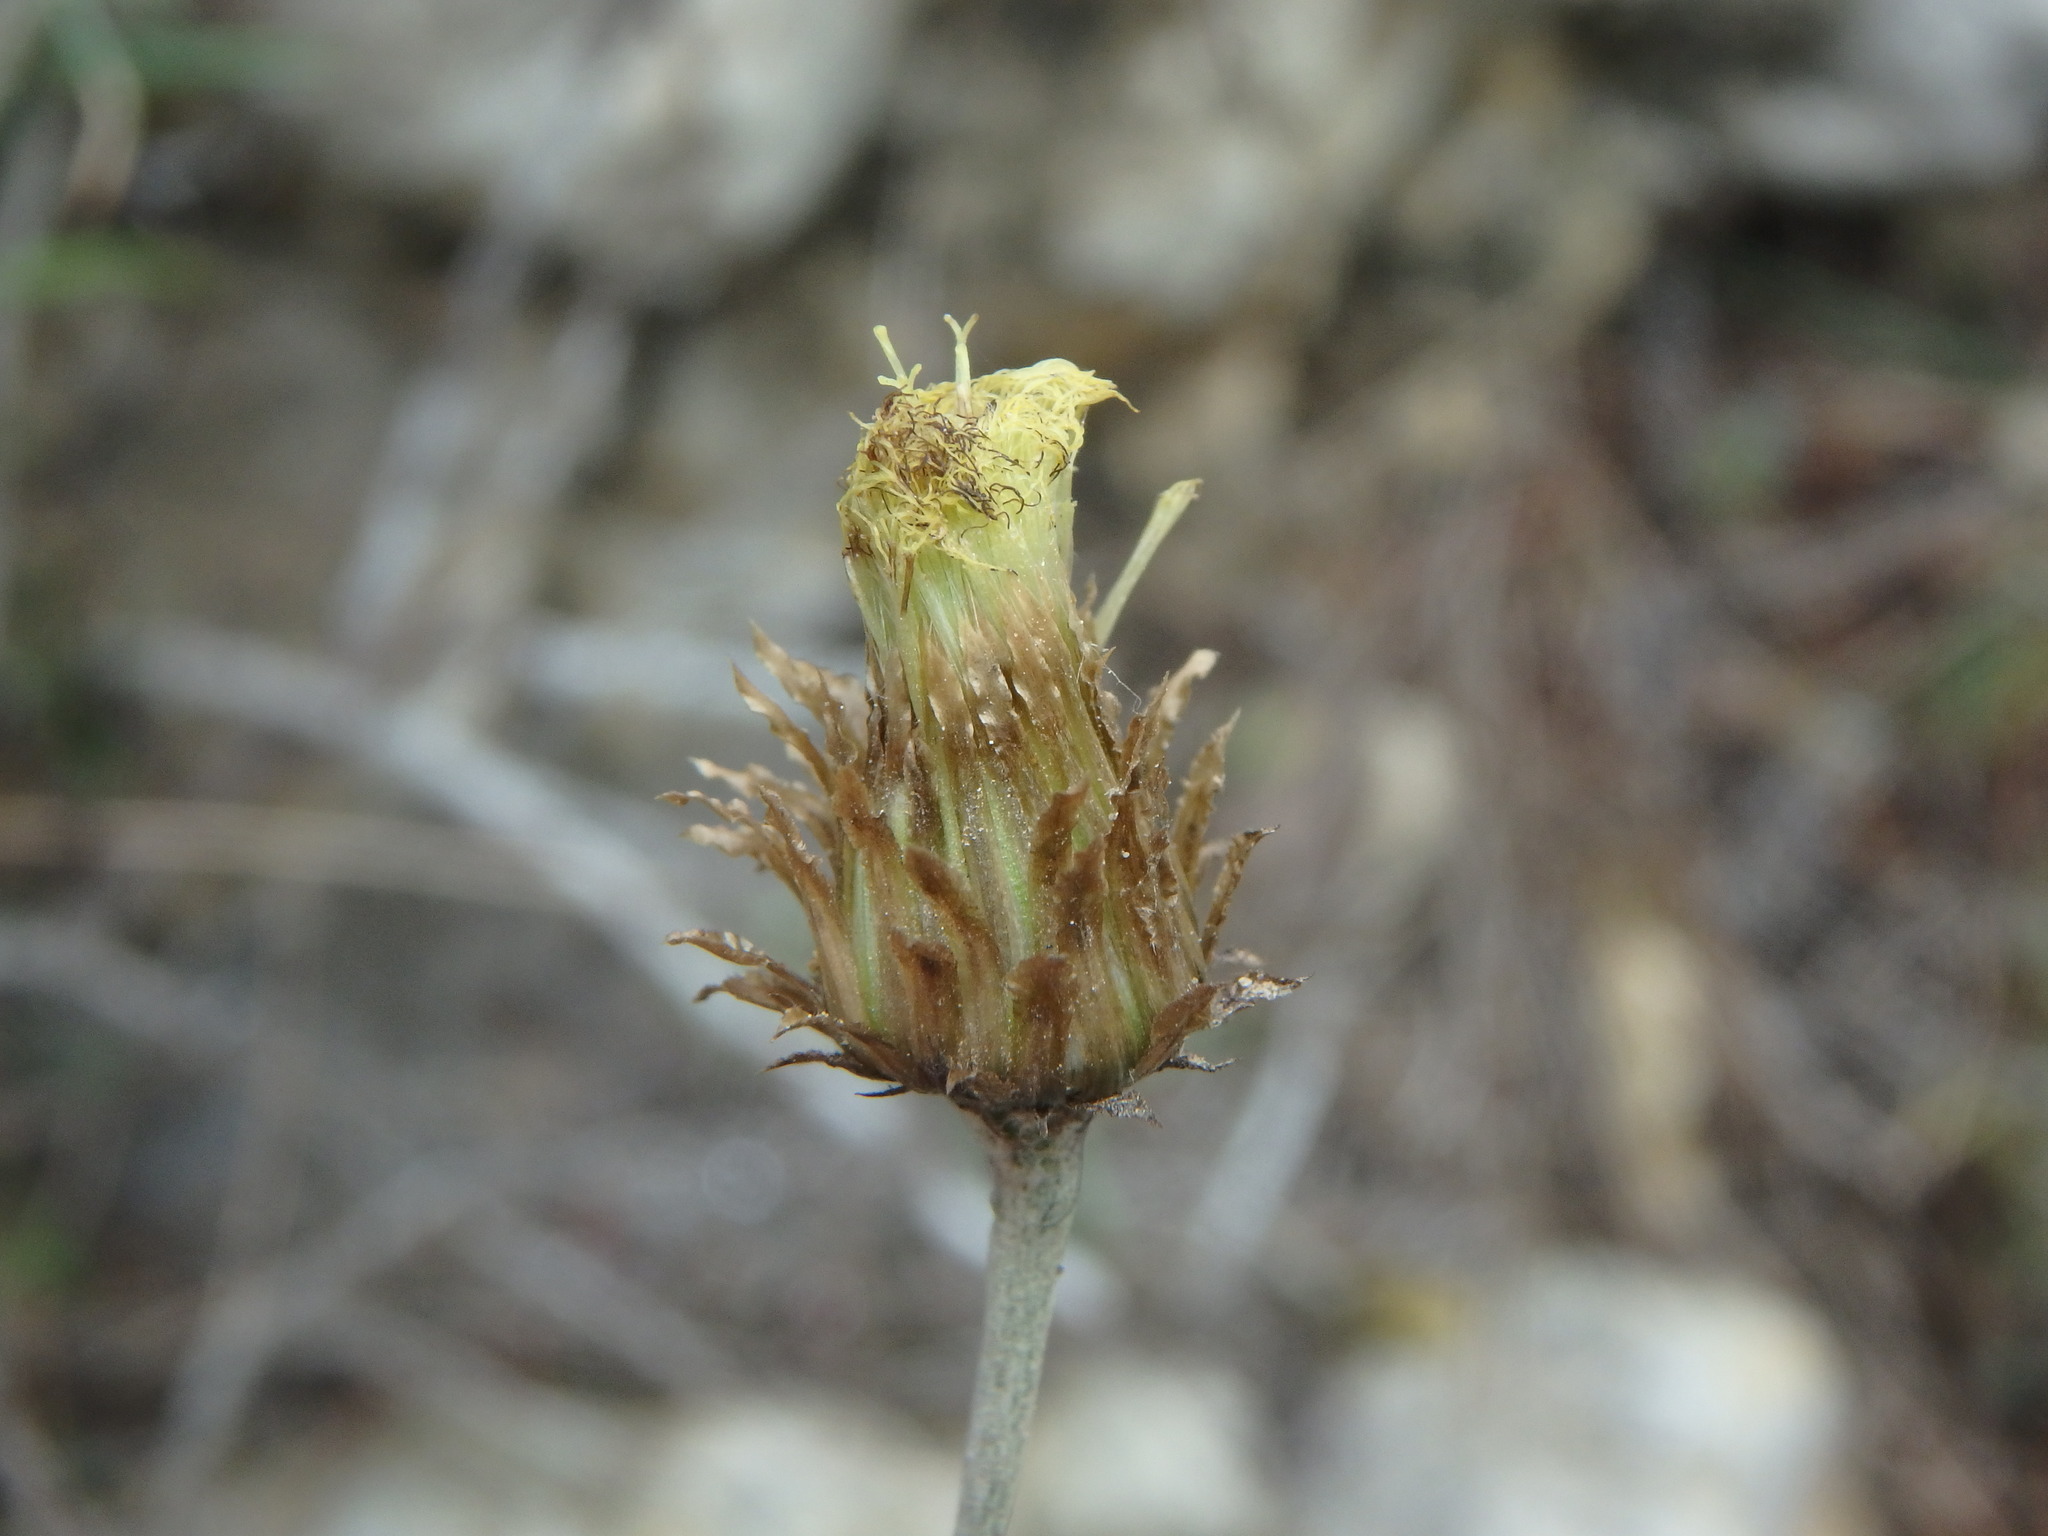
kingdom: Plantae
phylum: Tracheophyta
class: Magnoliopsida
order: Asterales
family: Asteraceae
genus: Phagnalon
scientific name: Phagnalon saxatile
